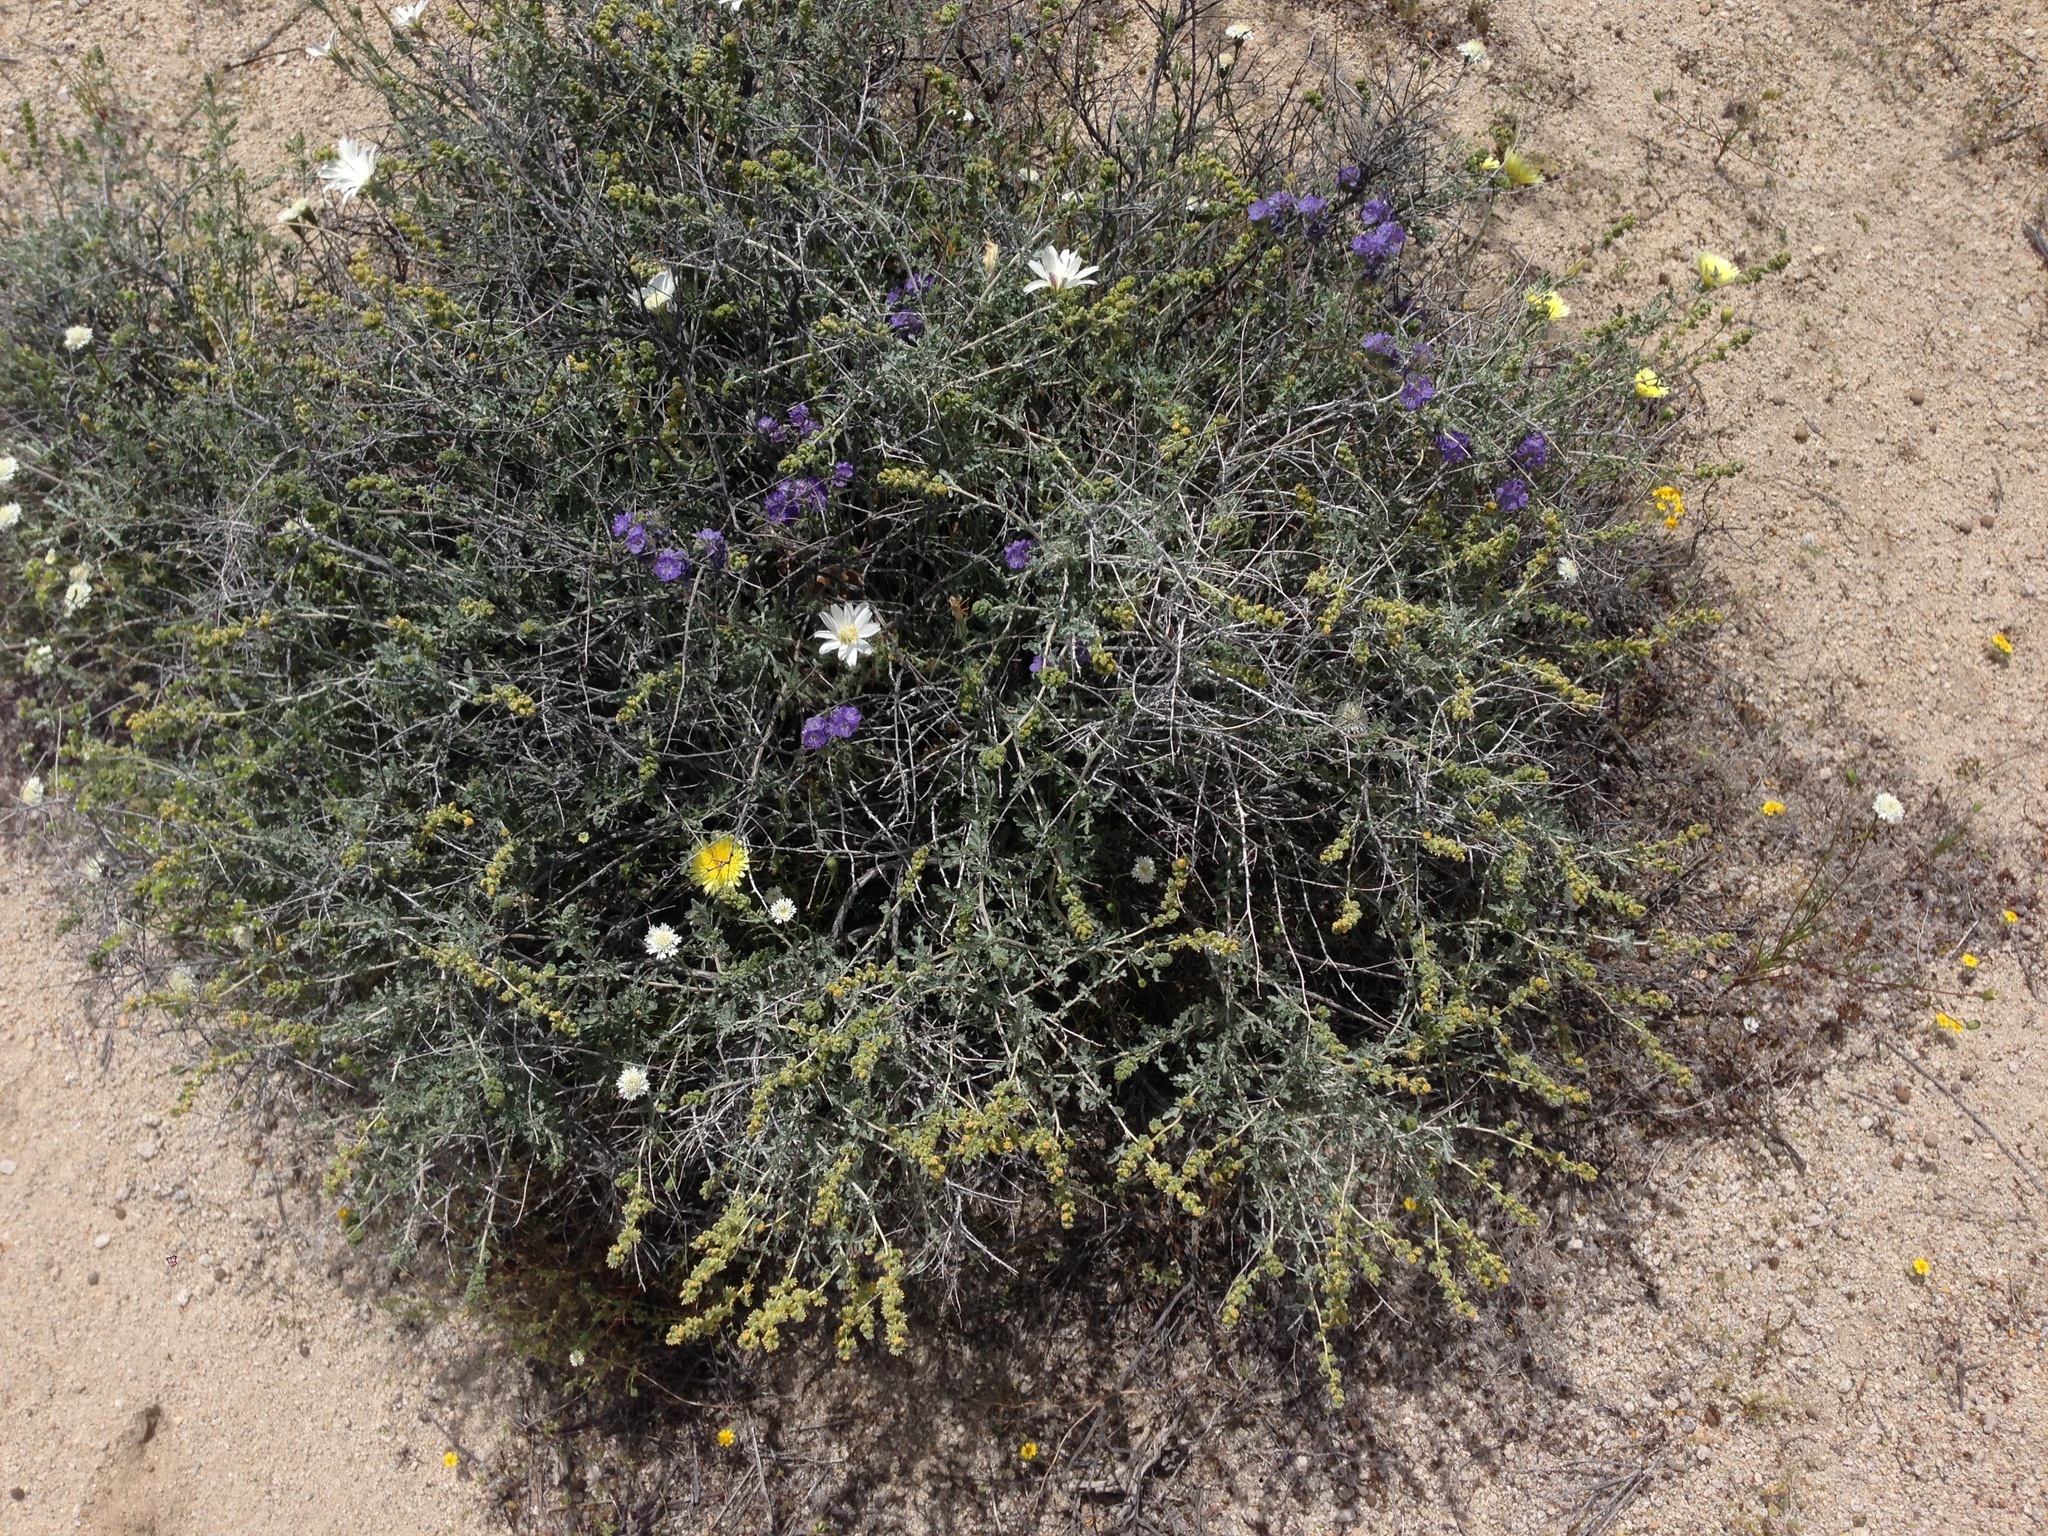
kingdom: Plantae
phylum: Tracheophyta
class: Magnoliopsida
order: Asterales
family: Asteraceae
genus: Ambrosia
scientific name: Ambrosia dumosa
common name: Bur-sage
